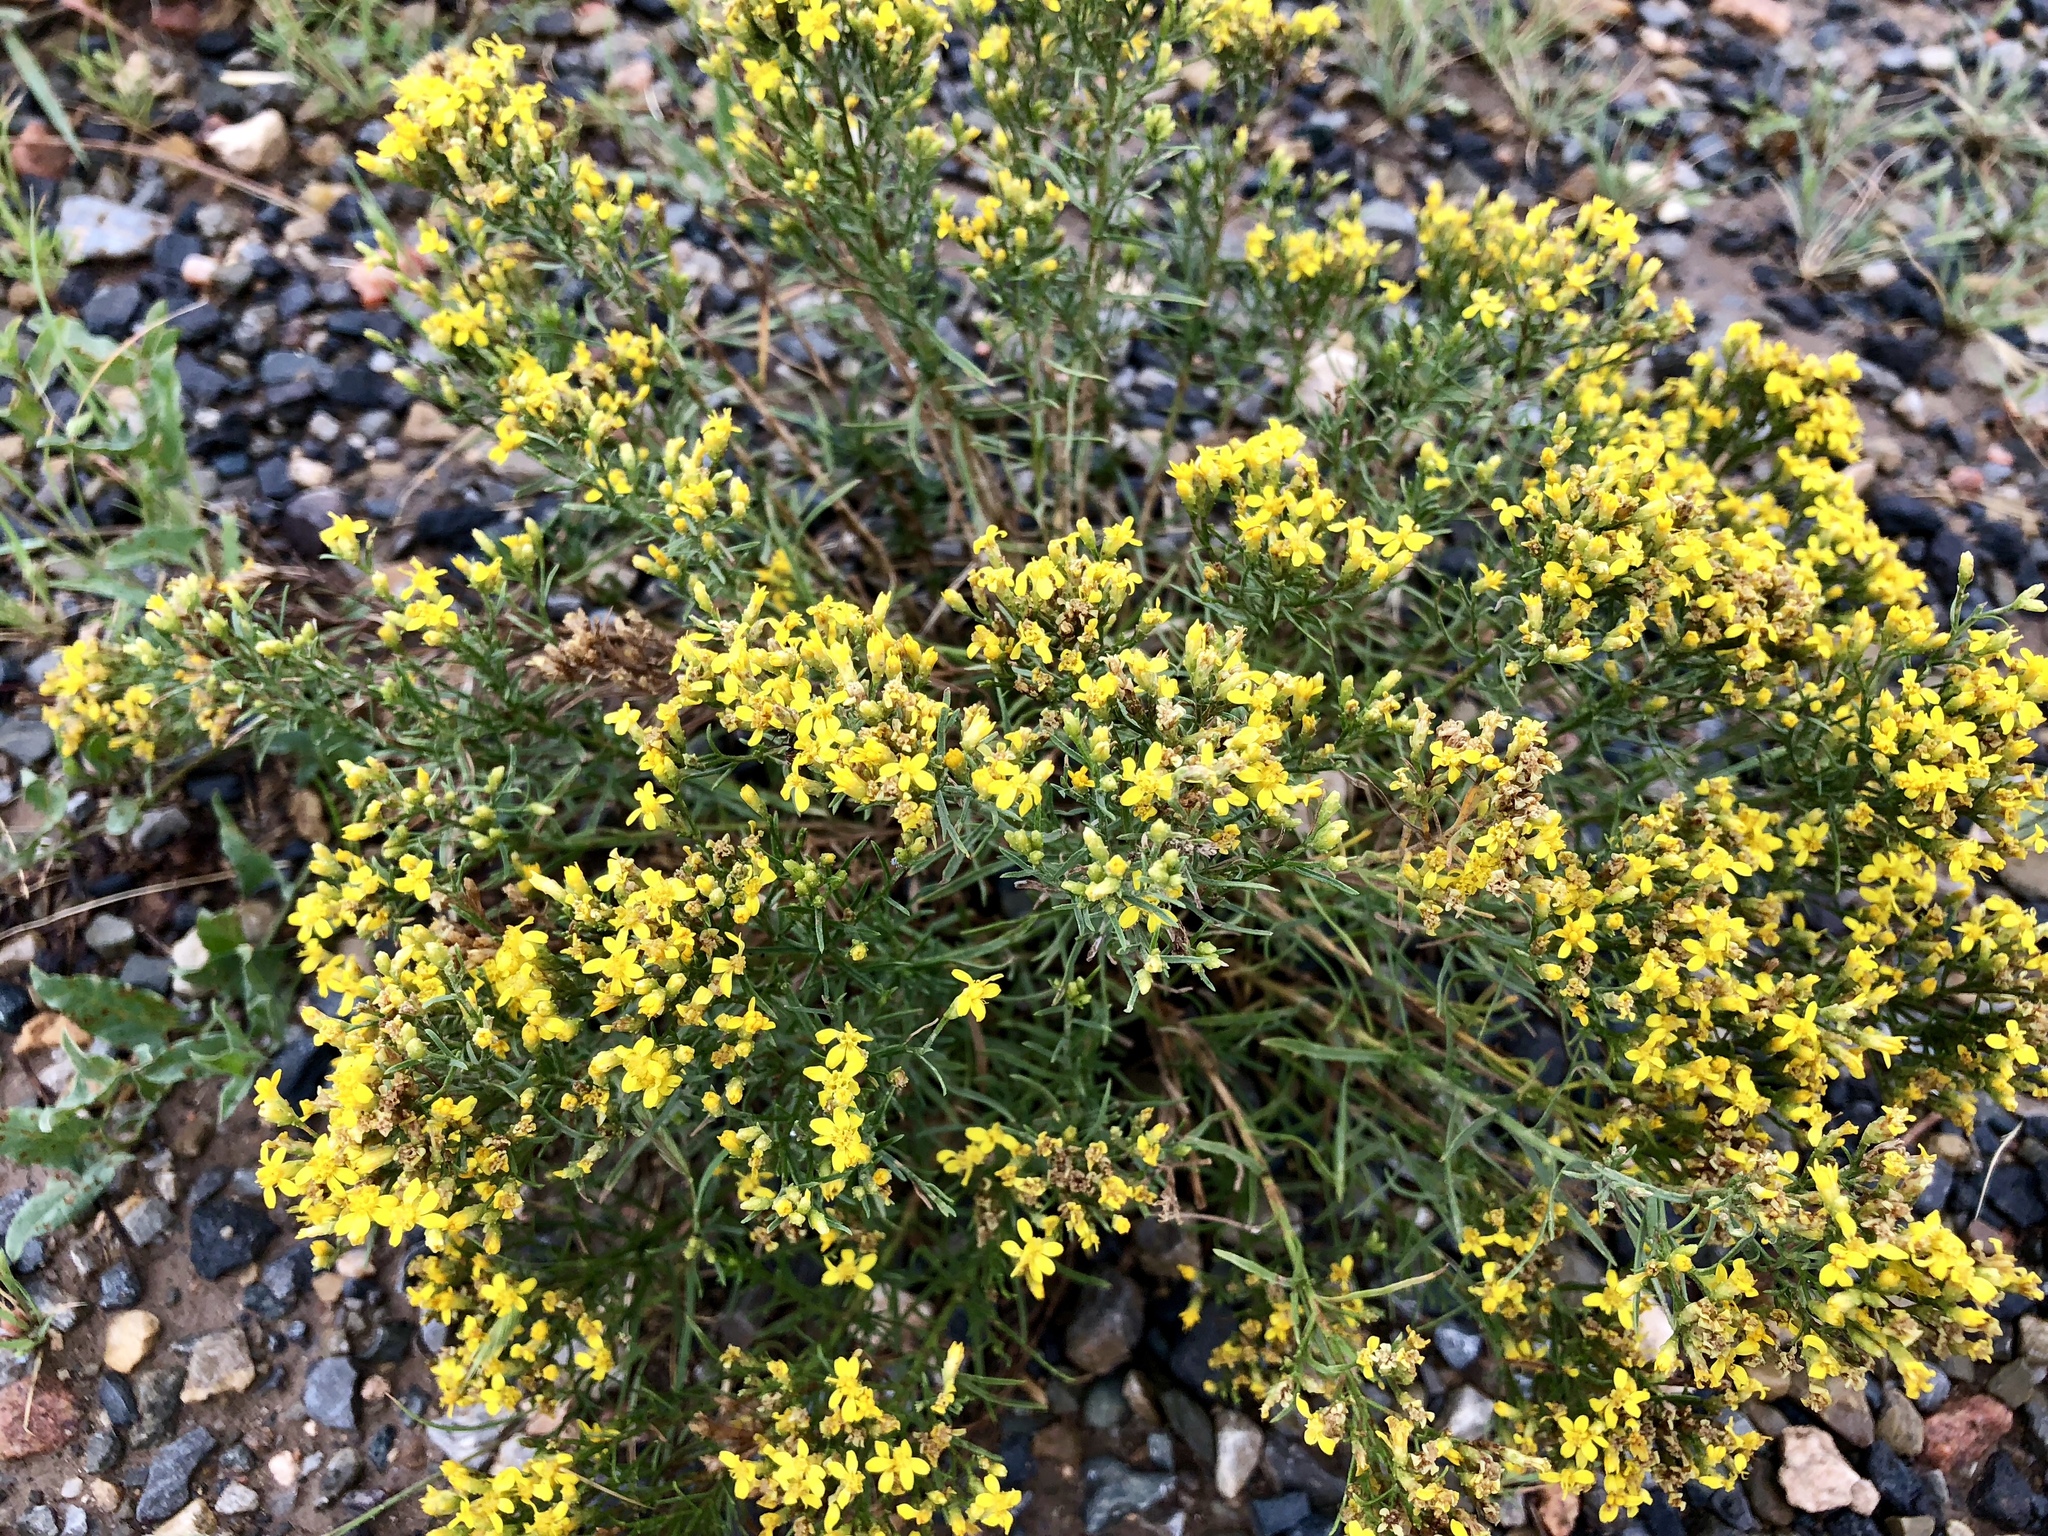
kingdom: Plantae
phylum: Tracheophyta
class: Magnoliopsida
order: Asterales
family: Asteraceae
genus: Gutierrezia
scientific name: Gutierrezia sarothrae
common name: Broom snakeweed
